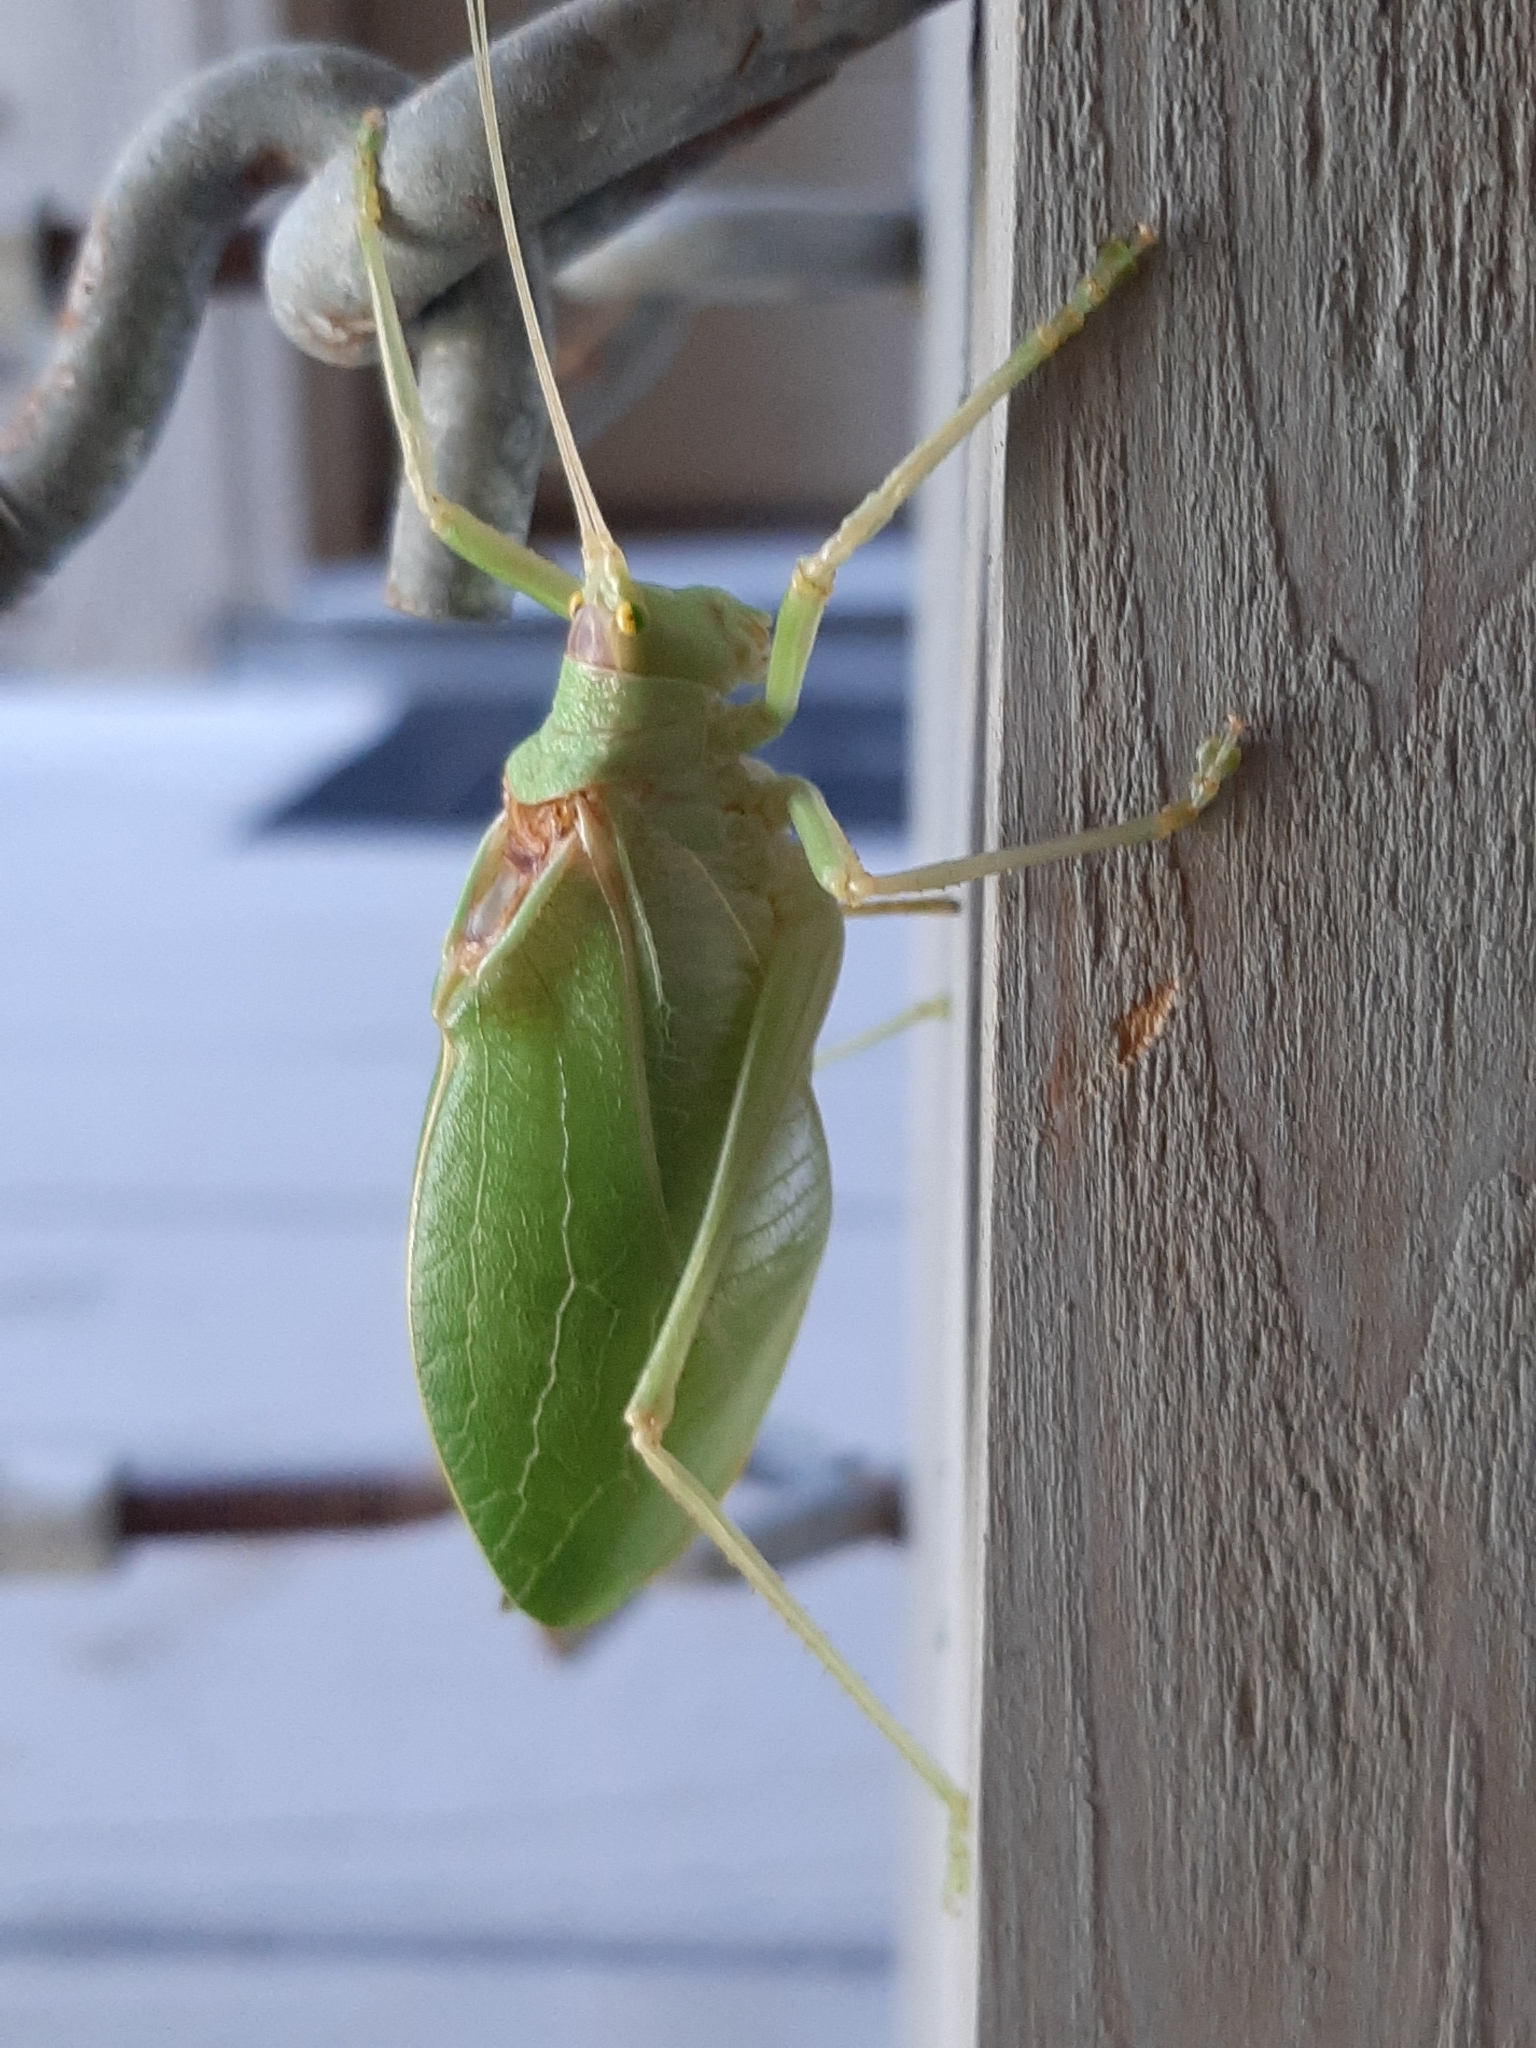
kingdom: Animalia
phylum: Arthropoda
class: Insecta
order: Orthoptera
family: Tettigoniidae
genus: Pterophylla
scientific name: Pterophylla camellifolia
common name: Common true katydid
